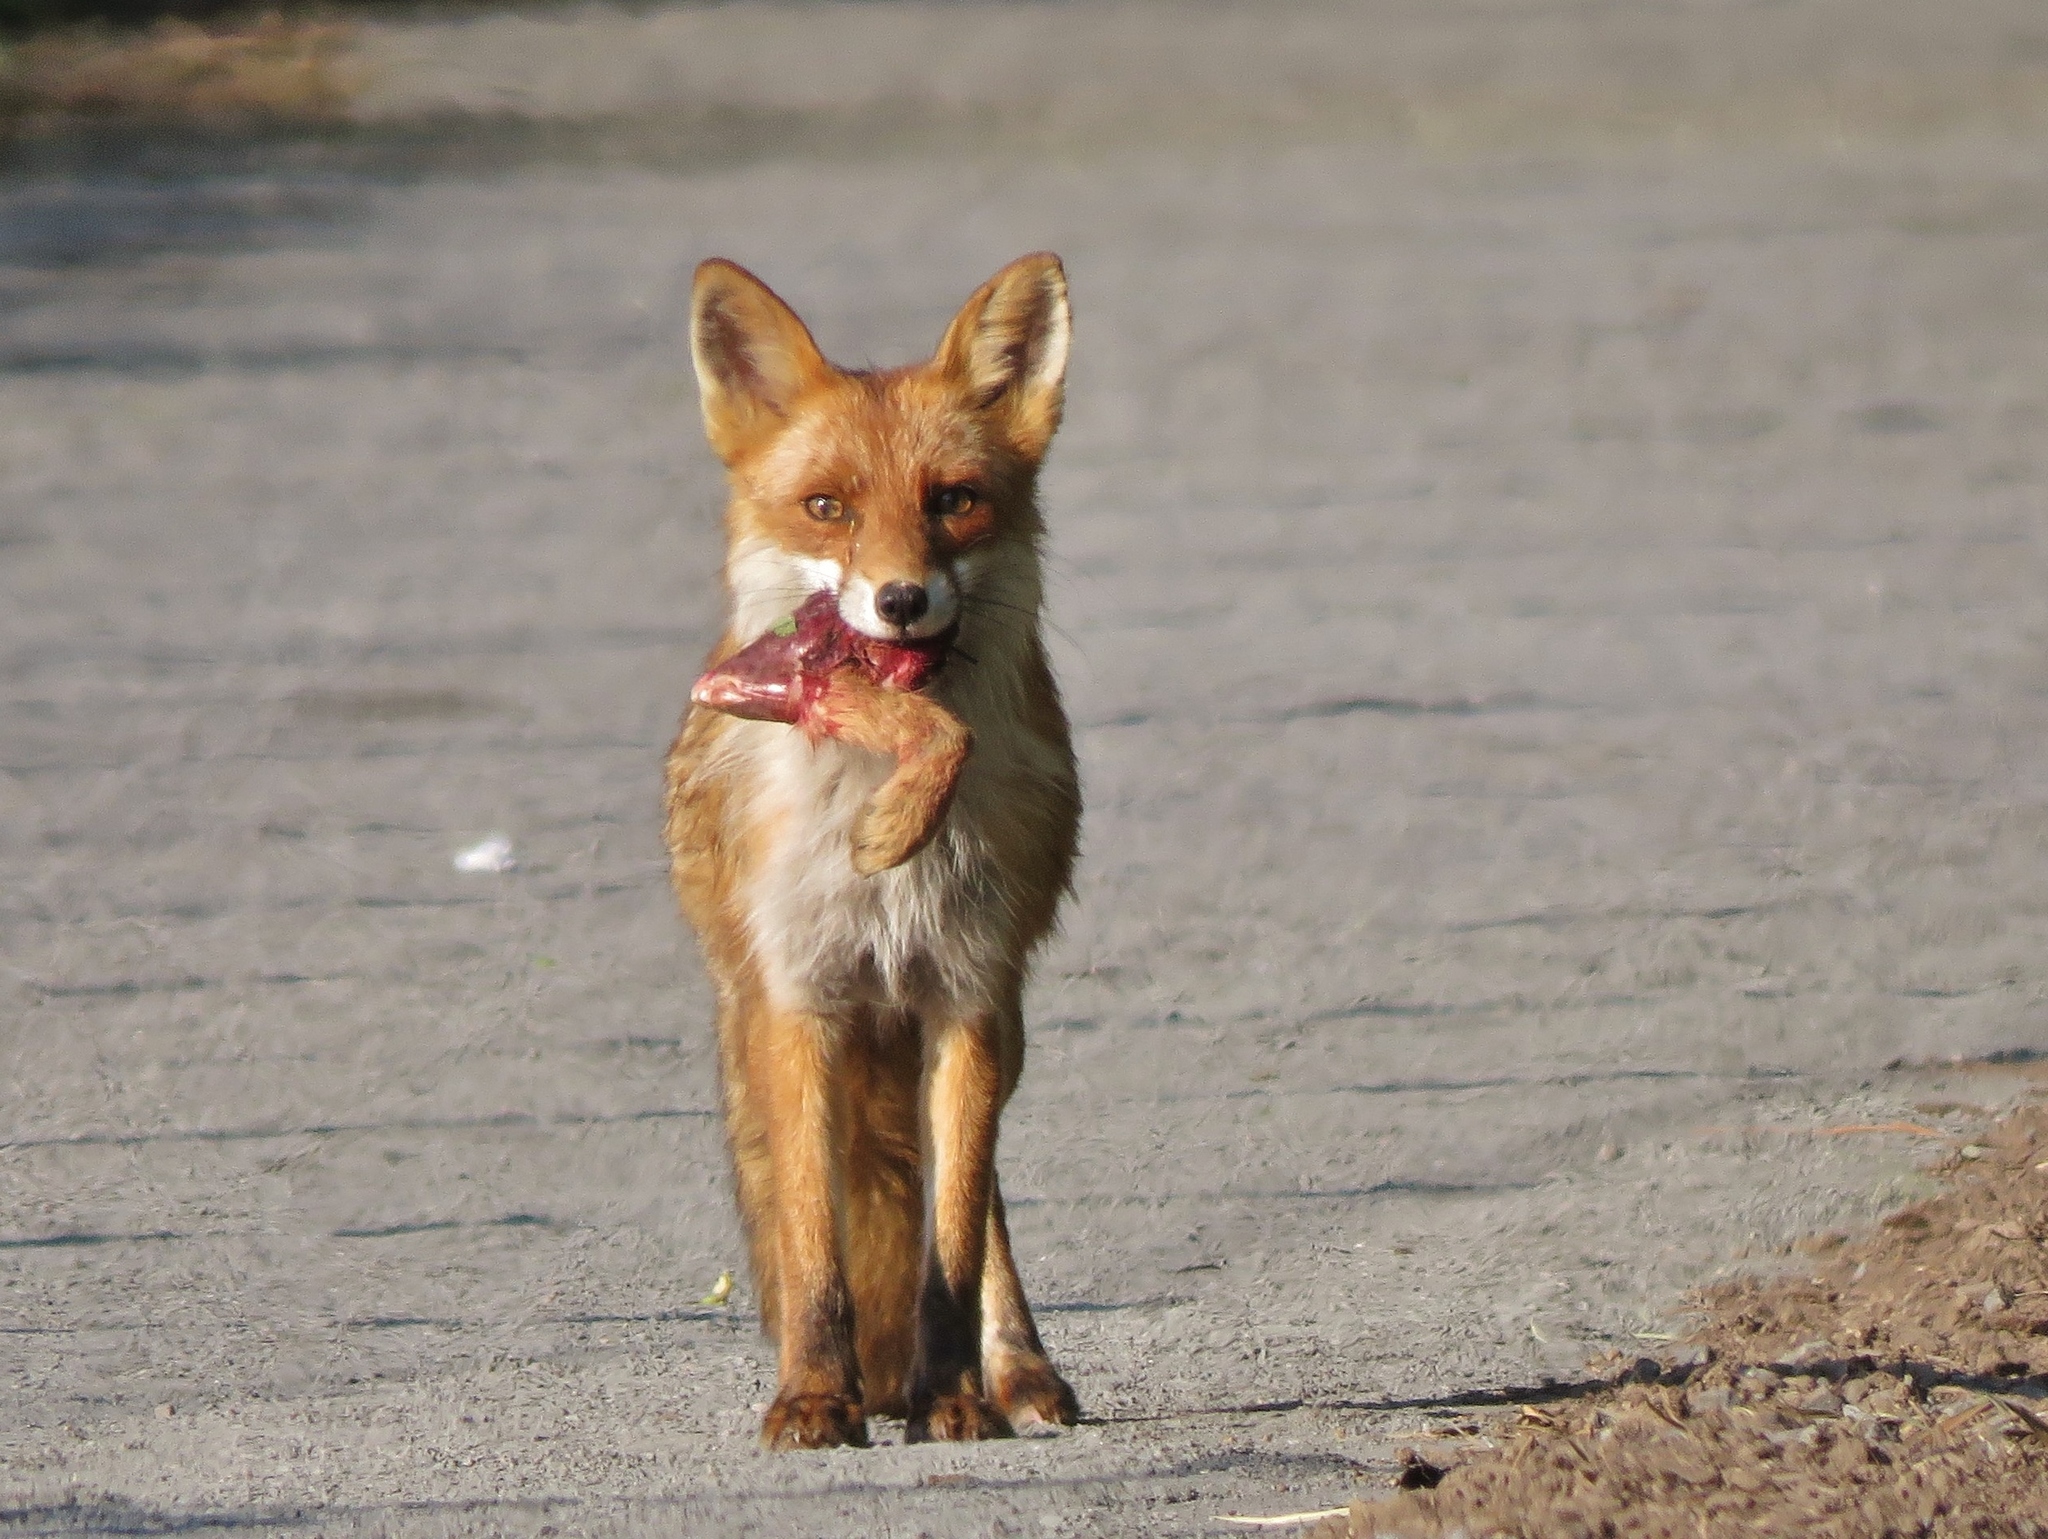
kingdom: Animalia
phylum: Chordata
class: Mammalia
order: Carnivora
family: Canidae
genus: Vulpes
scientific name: Vulpes vulpes
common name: Red fox
